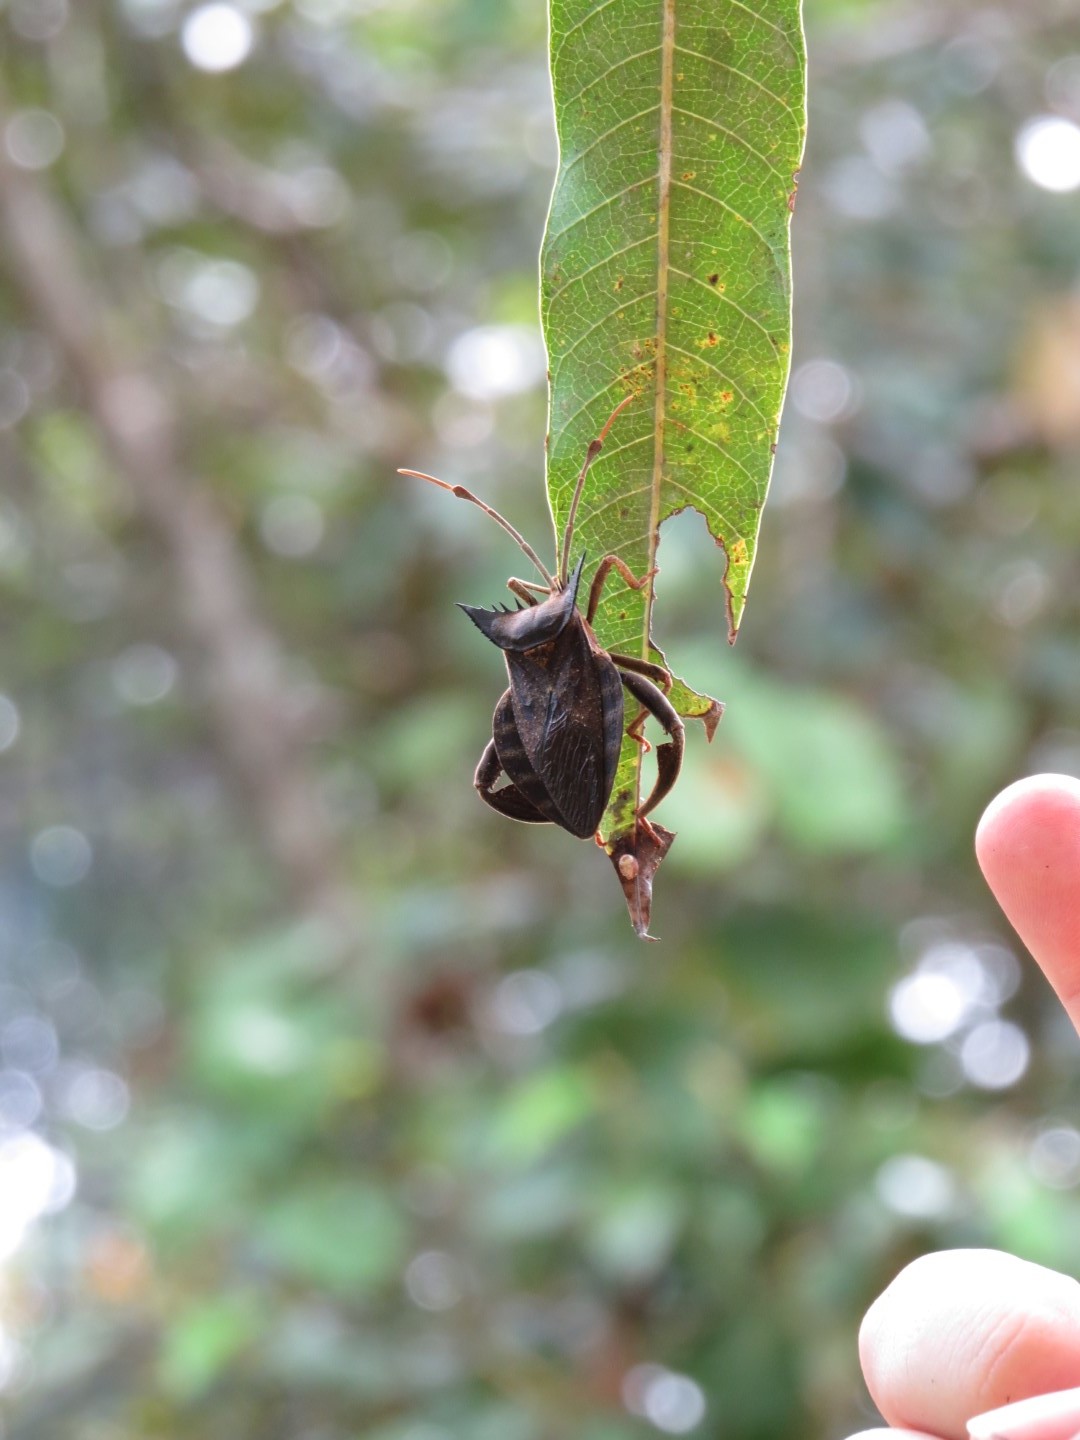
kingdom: Animalia
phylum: Arthropoda
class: Insecta
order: Hemiptera
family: Coreidae
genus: Oxypristis
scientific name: Oxypristis conspicuus
